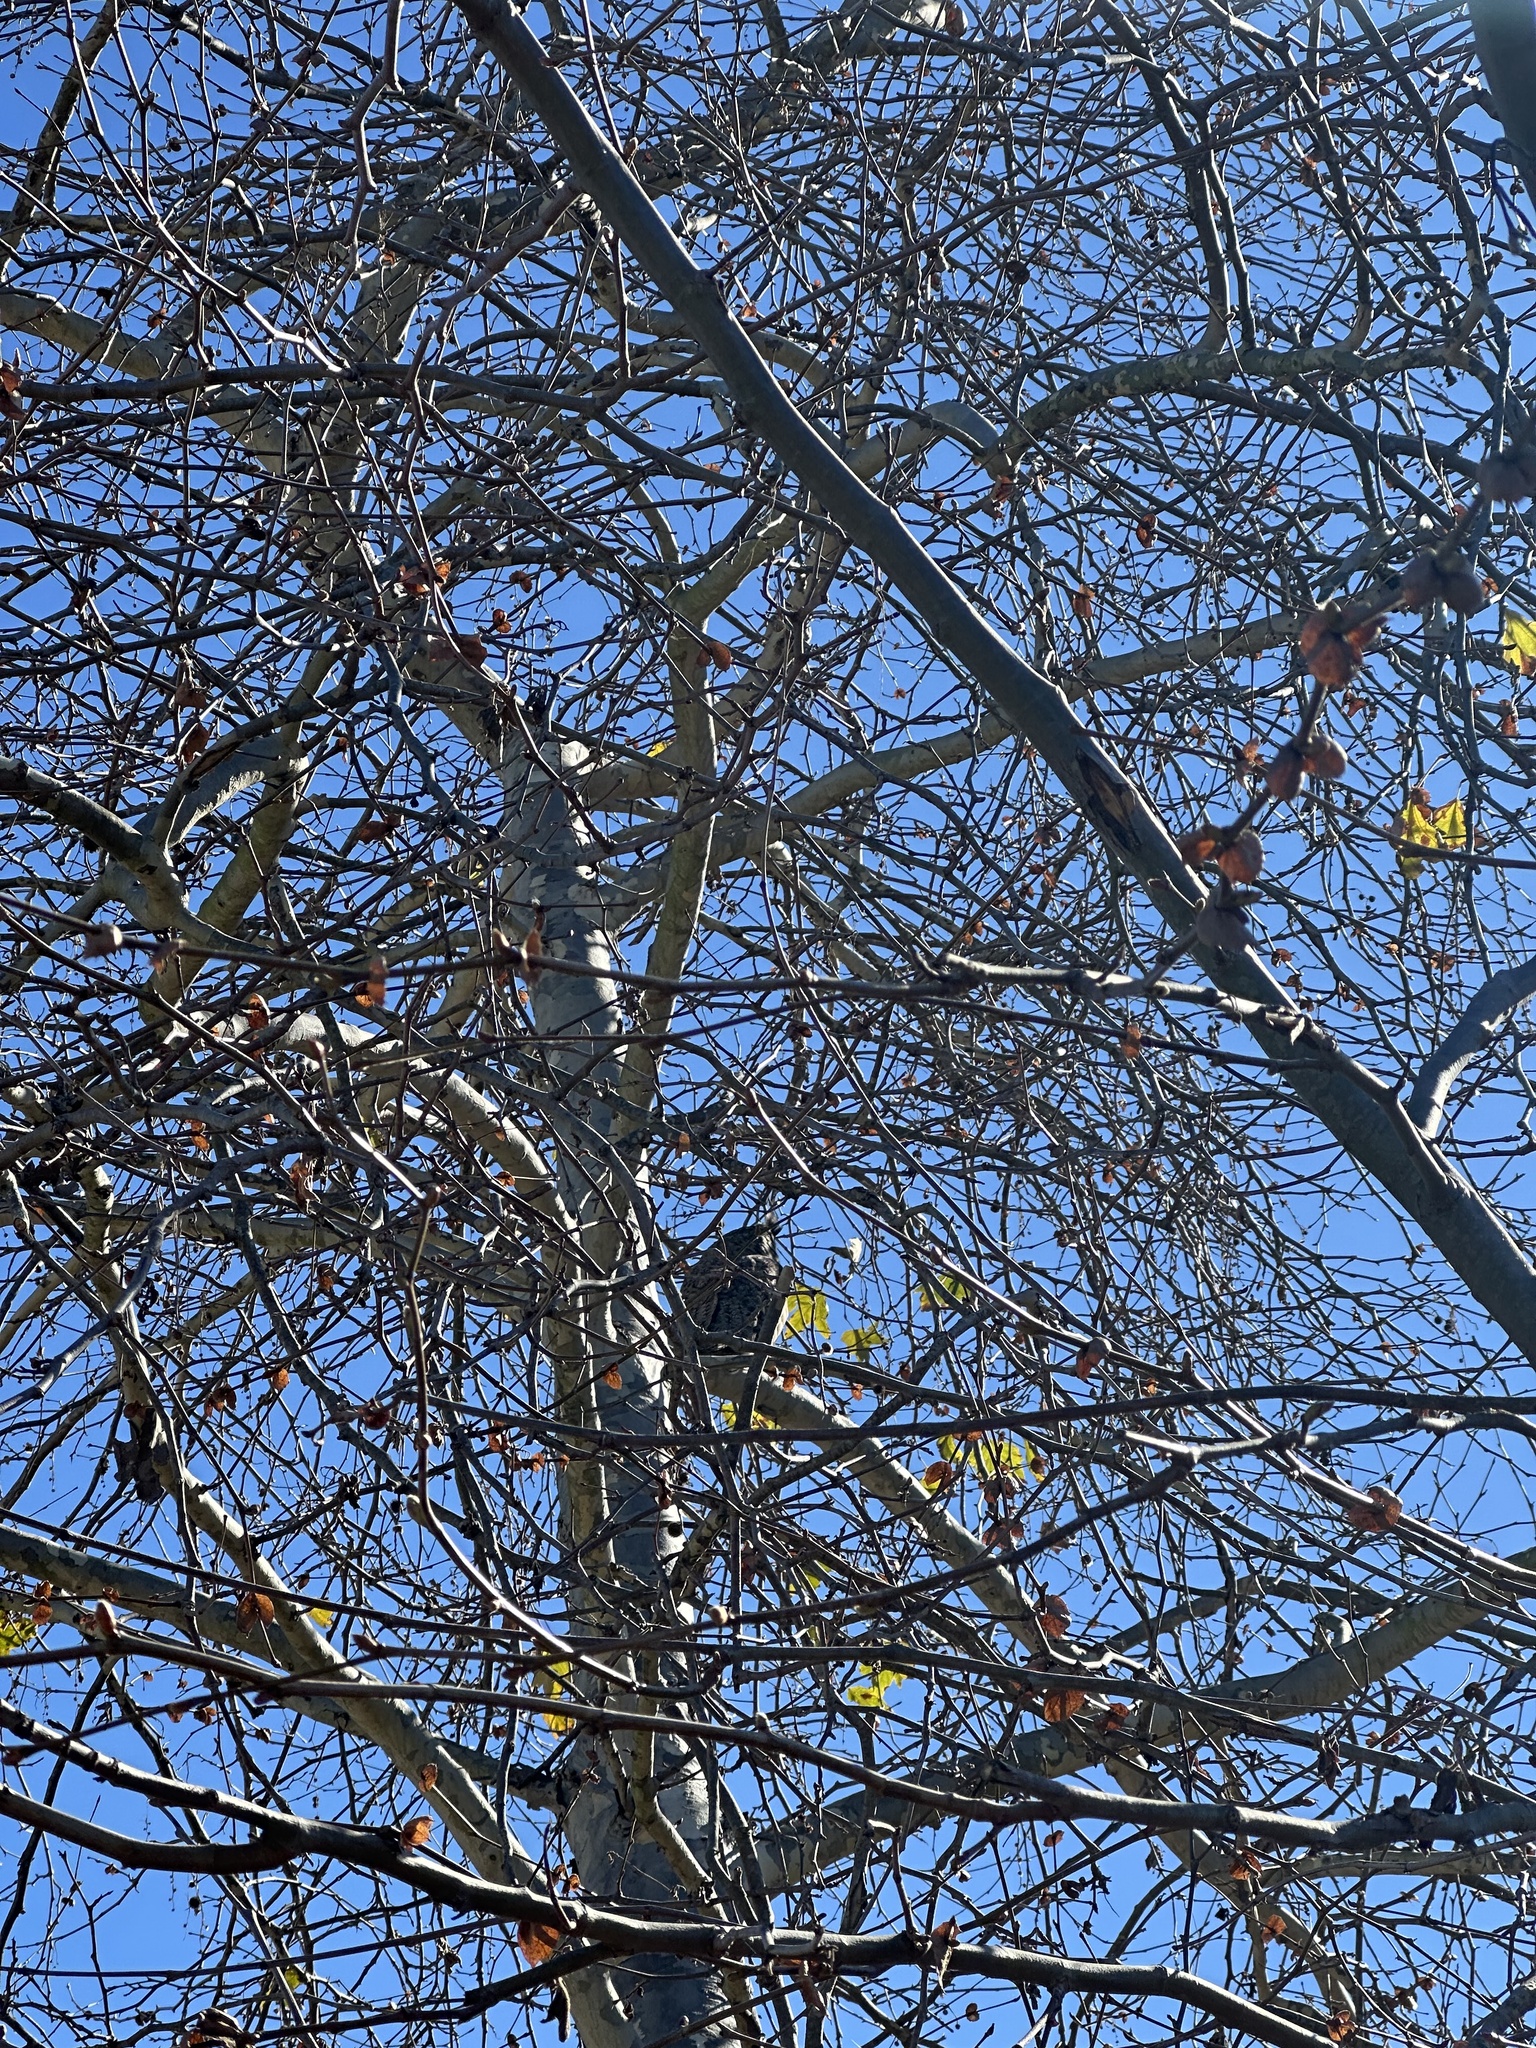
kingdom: Animalia
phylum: Chordata
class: Aves
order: Strigiformes
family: Strigidae
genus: Bubo
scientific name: Bubo virginianus
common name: Great horned owl
